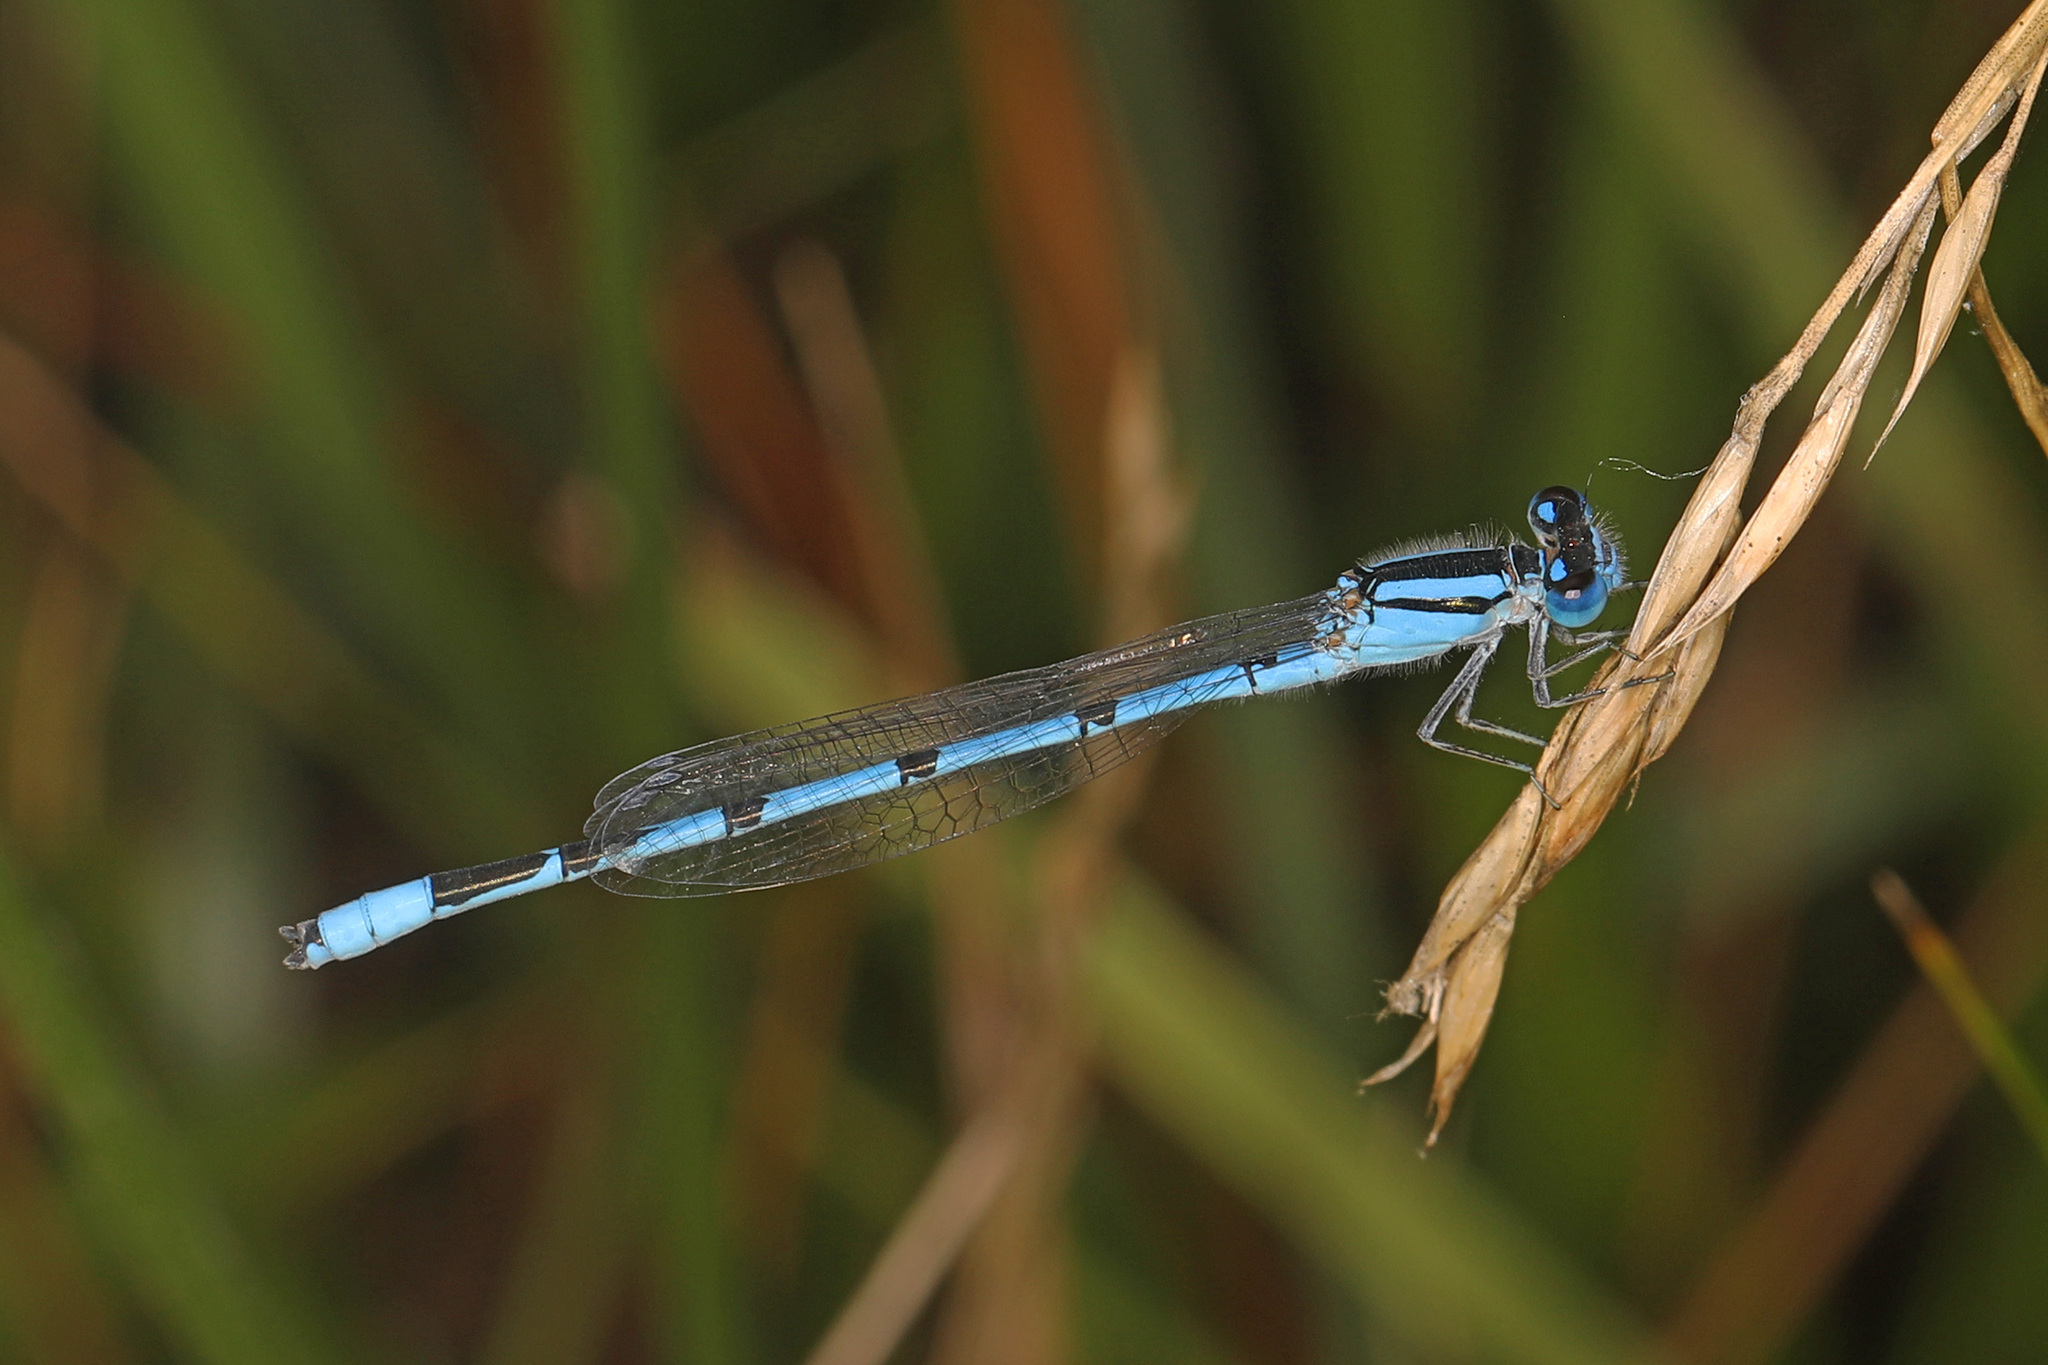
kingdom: Animalia
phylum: Arthropoda
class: Insecta
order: Odonata
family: Coenagrionidae
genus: Enallagma
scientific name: Enallagma civile
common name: Damselfly
